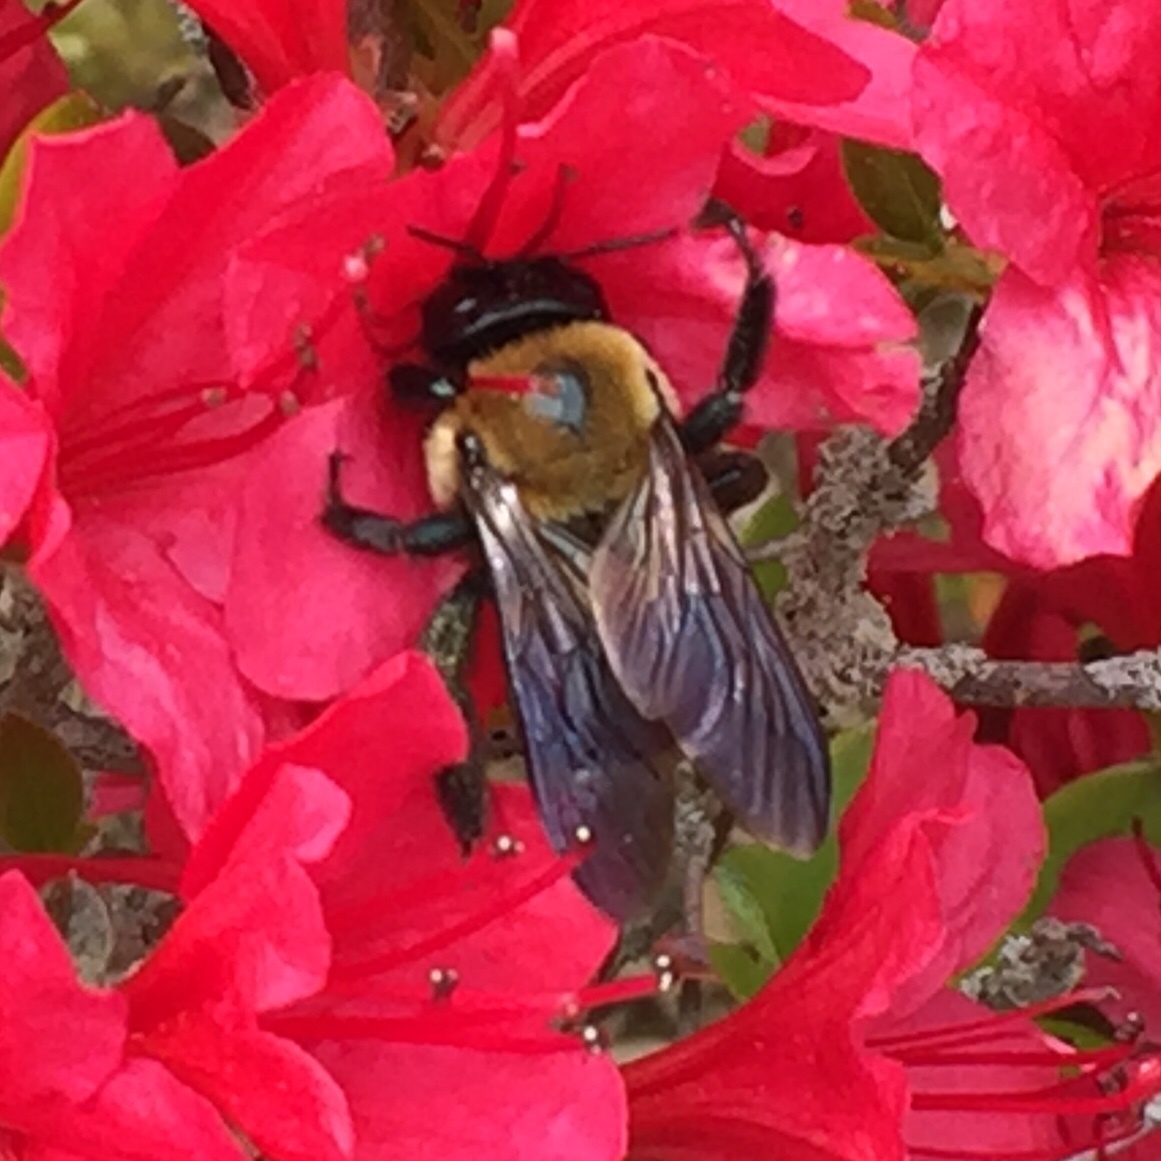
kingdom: Animalia
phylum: Arthropoda
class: Insecta
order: Hymenoptera
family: Apidae
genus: Xylocopa
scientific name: Xylocopa virginica
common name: Carpenter bee
